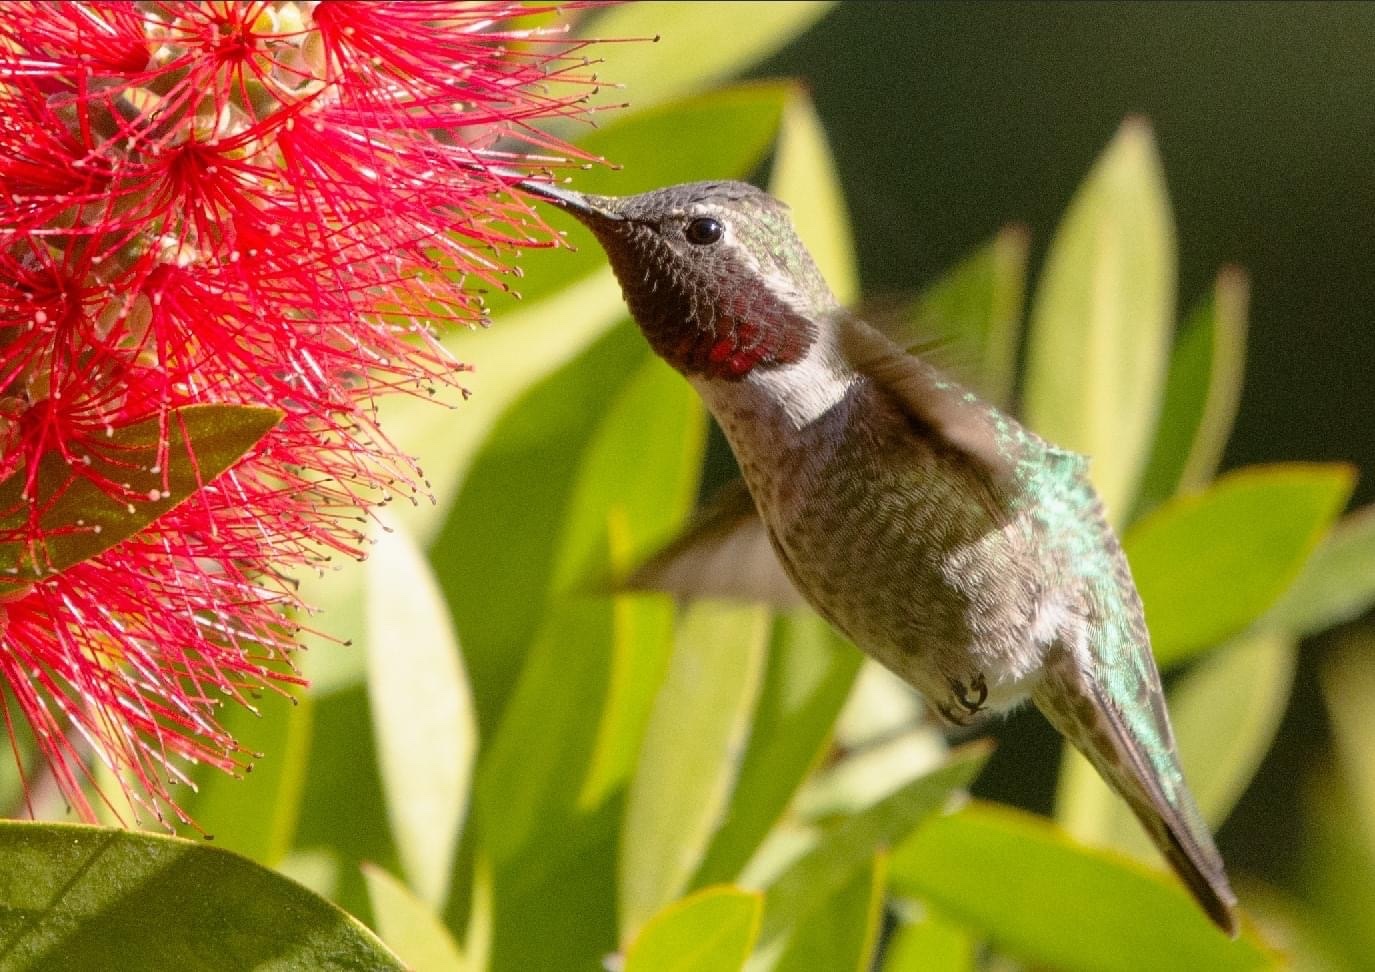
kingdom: Animalia
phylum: Chordata
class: Aves
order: Apodiformes
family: Trochilidae
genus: Calypte
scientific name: Calypte anna
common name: Anna's hummingbird
